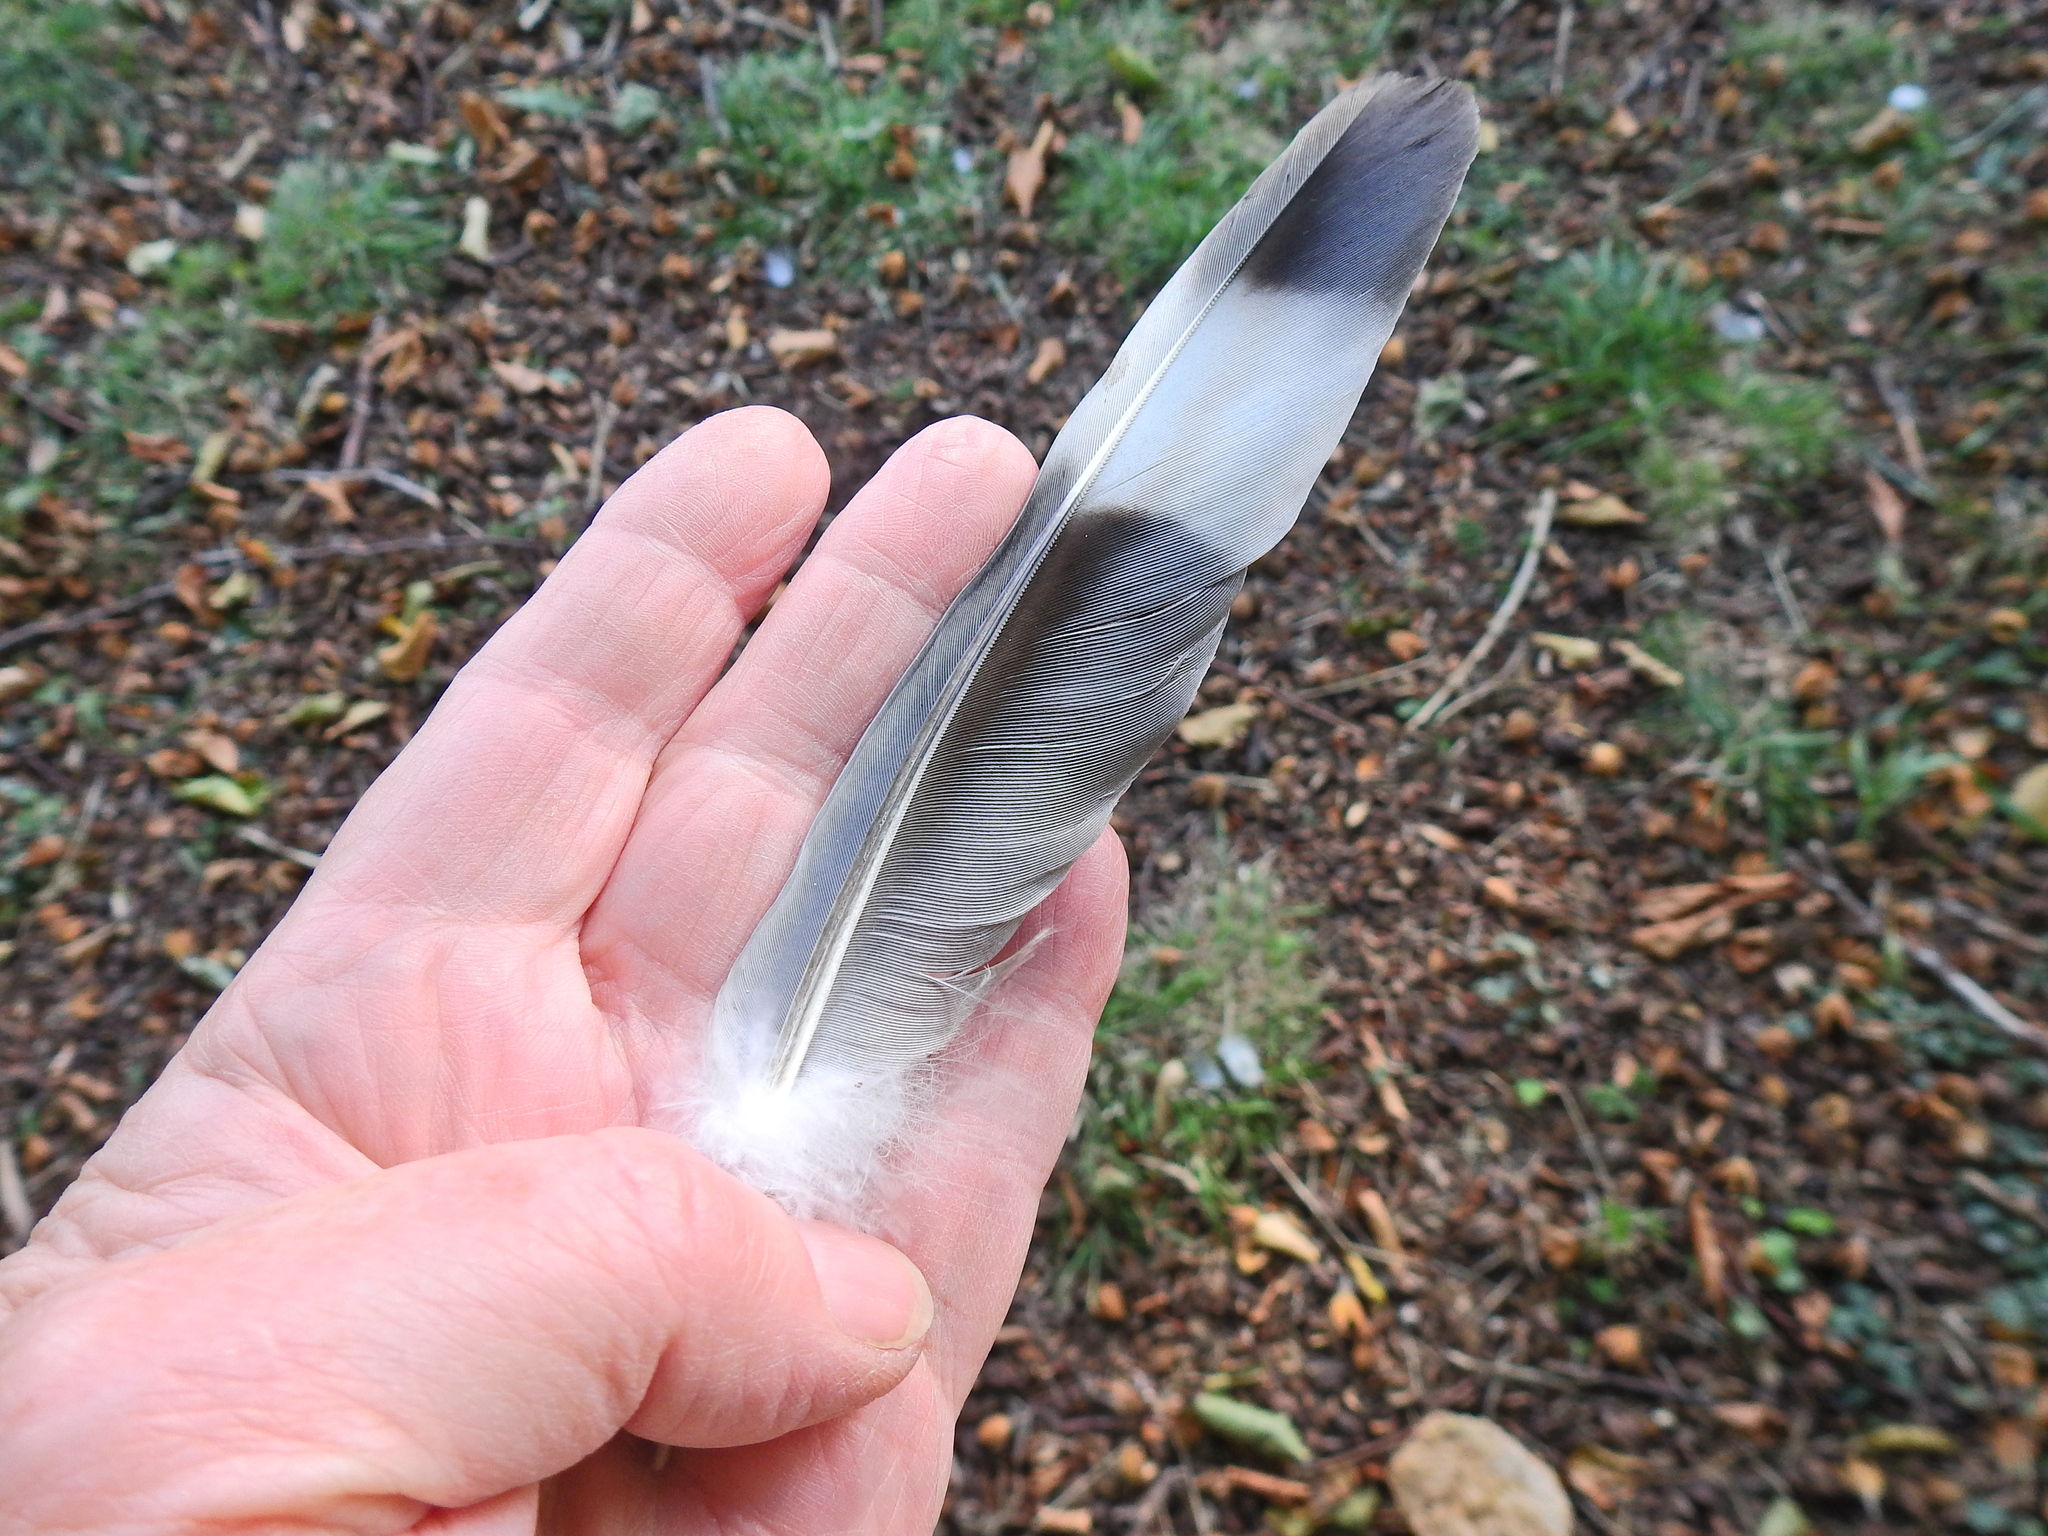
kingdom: Animalia
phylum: Chordata
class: Aves
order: Columbiformes
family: Columbidae
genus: Columba
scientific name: Columba palumbus
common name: Common wood pigeon
